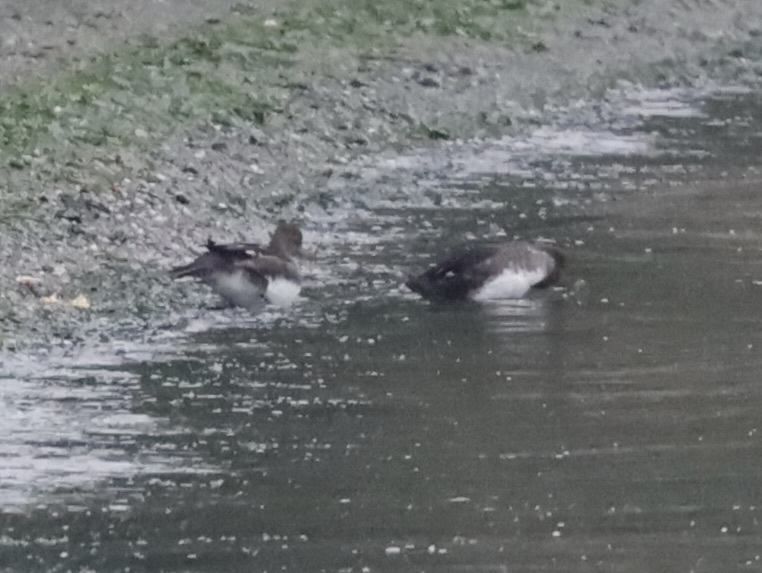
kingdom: Animalia
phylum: Chordata
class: Aves
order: Anseriformes
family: Anatidae
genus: Lophodytes
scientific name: Lophodytes cucullatus
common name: Hooded merganser
